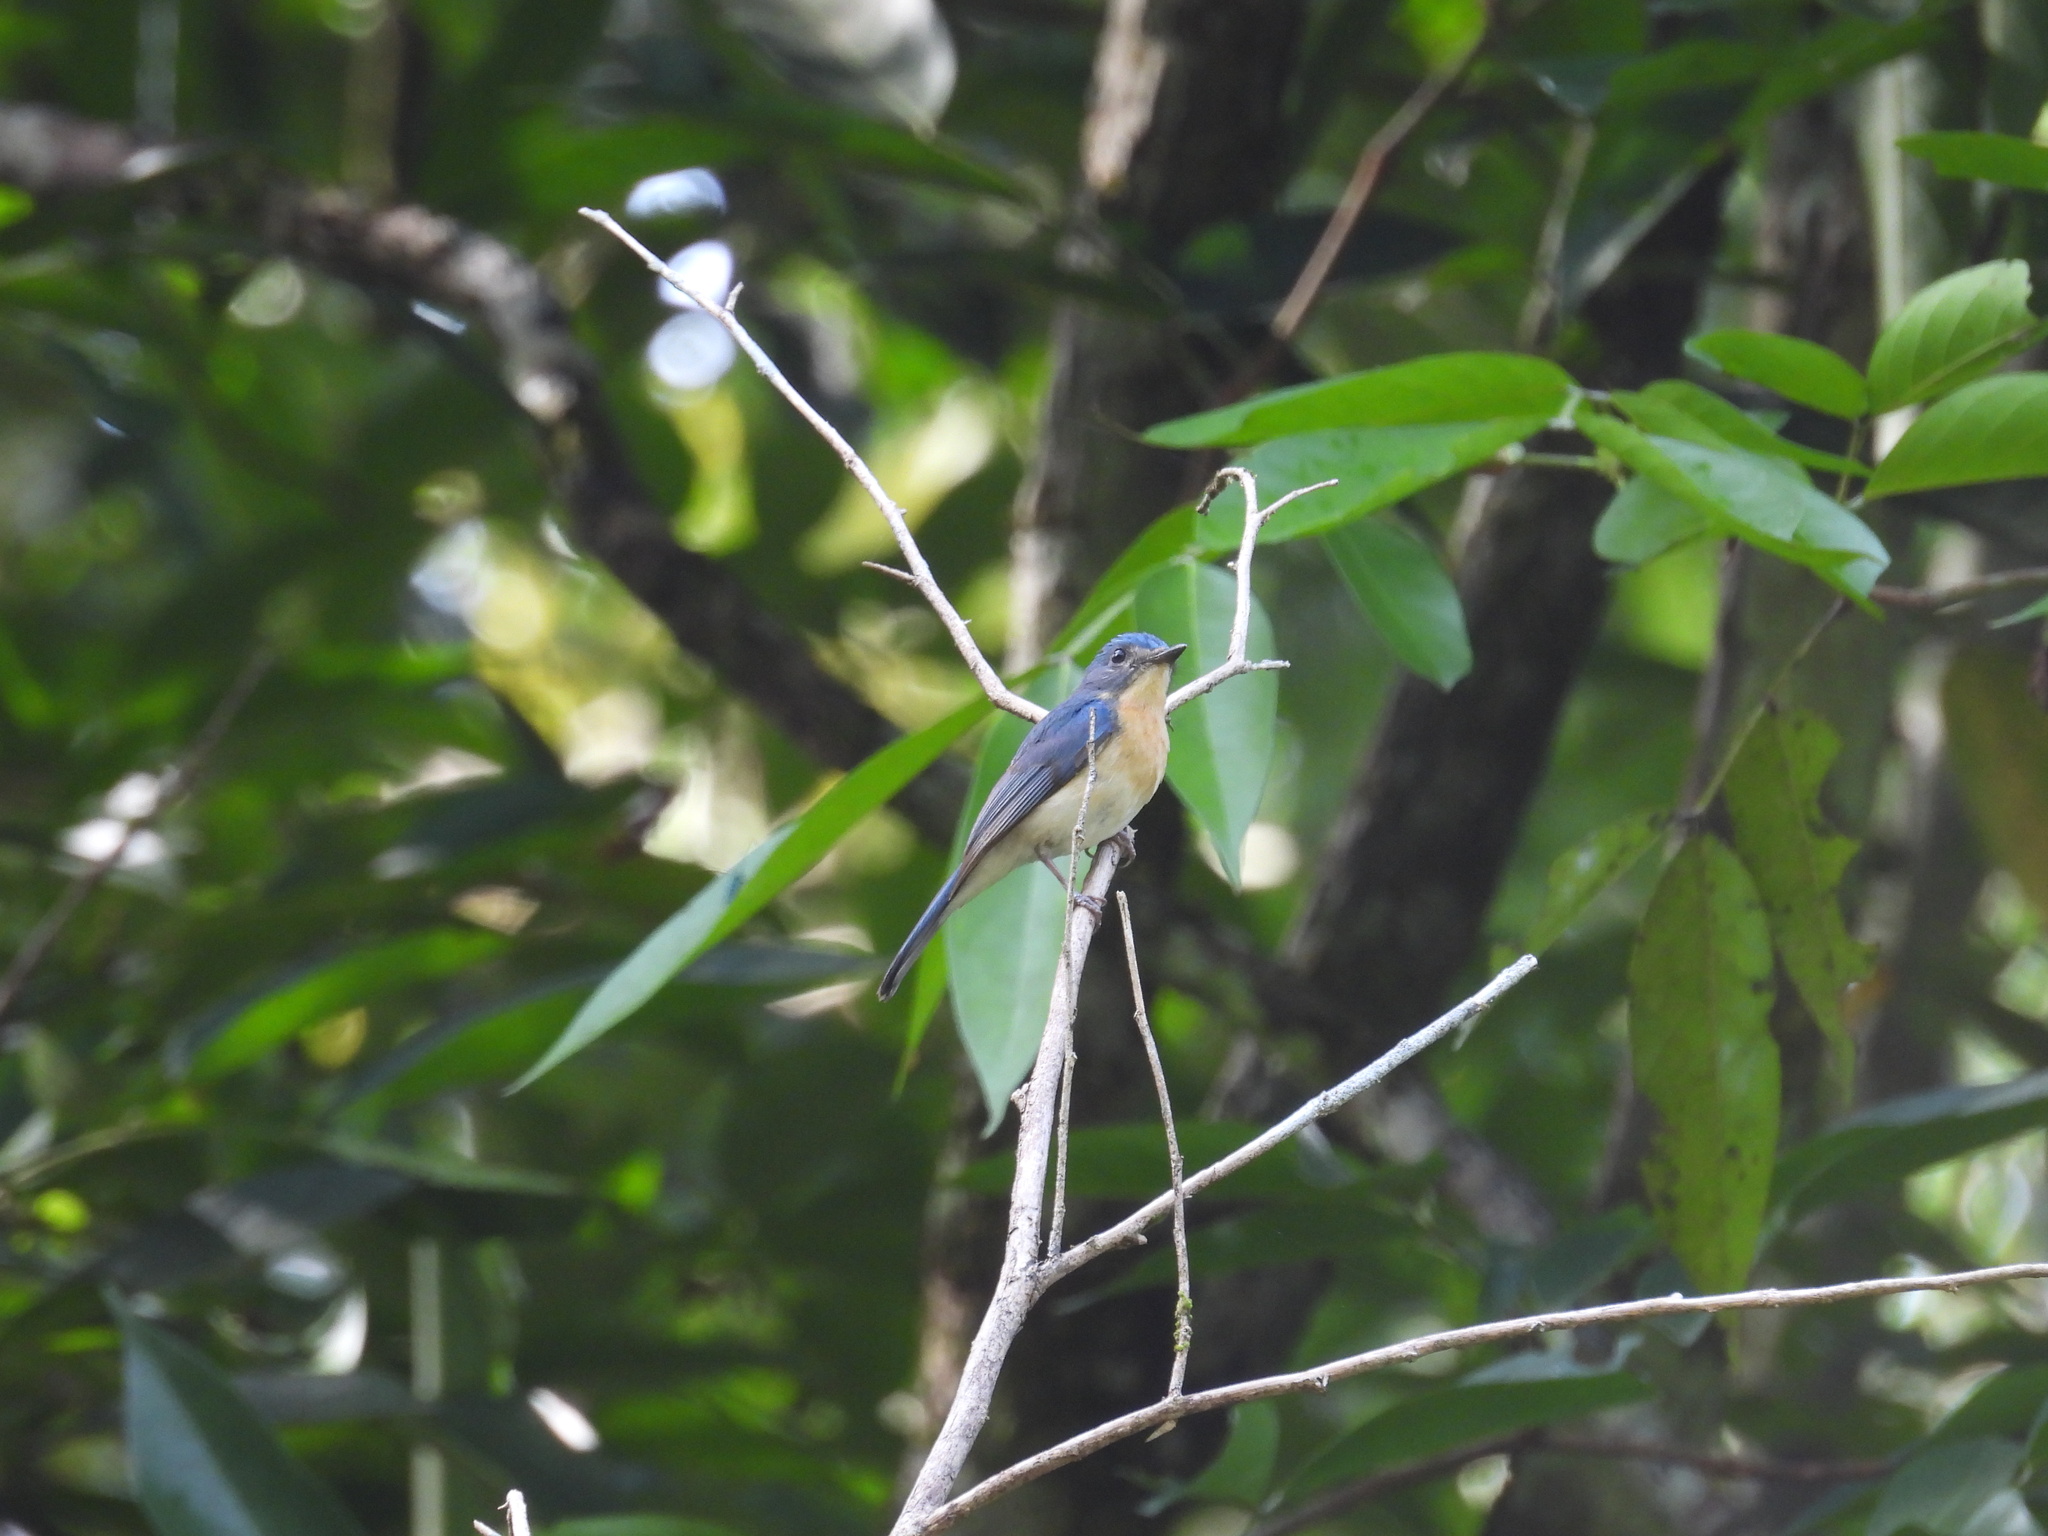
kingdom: Animalia
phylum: Chordata
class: Aves
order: Passeriformes
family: Muscicapidae
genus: Cyornis
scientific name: Cyornis tickelliae
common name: Tickell's blue flycatcher
